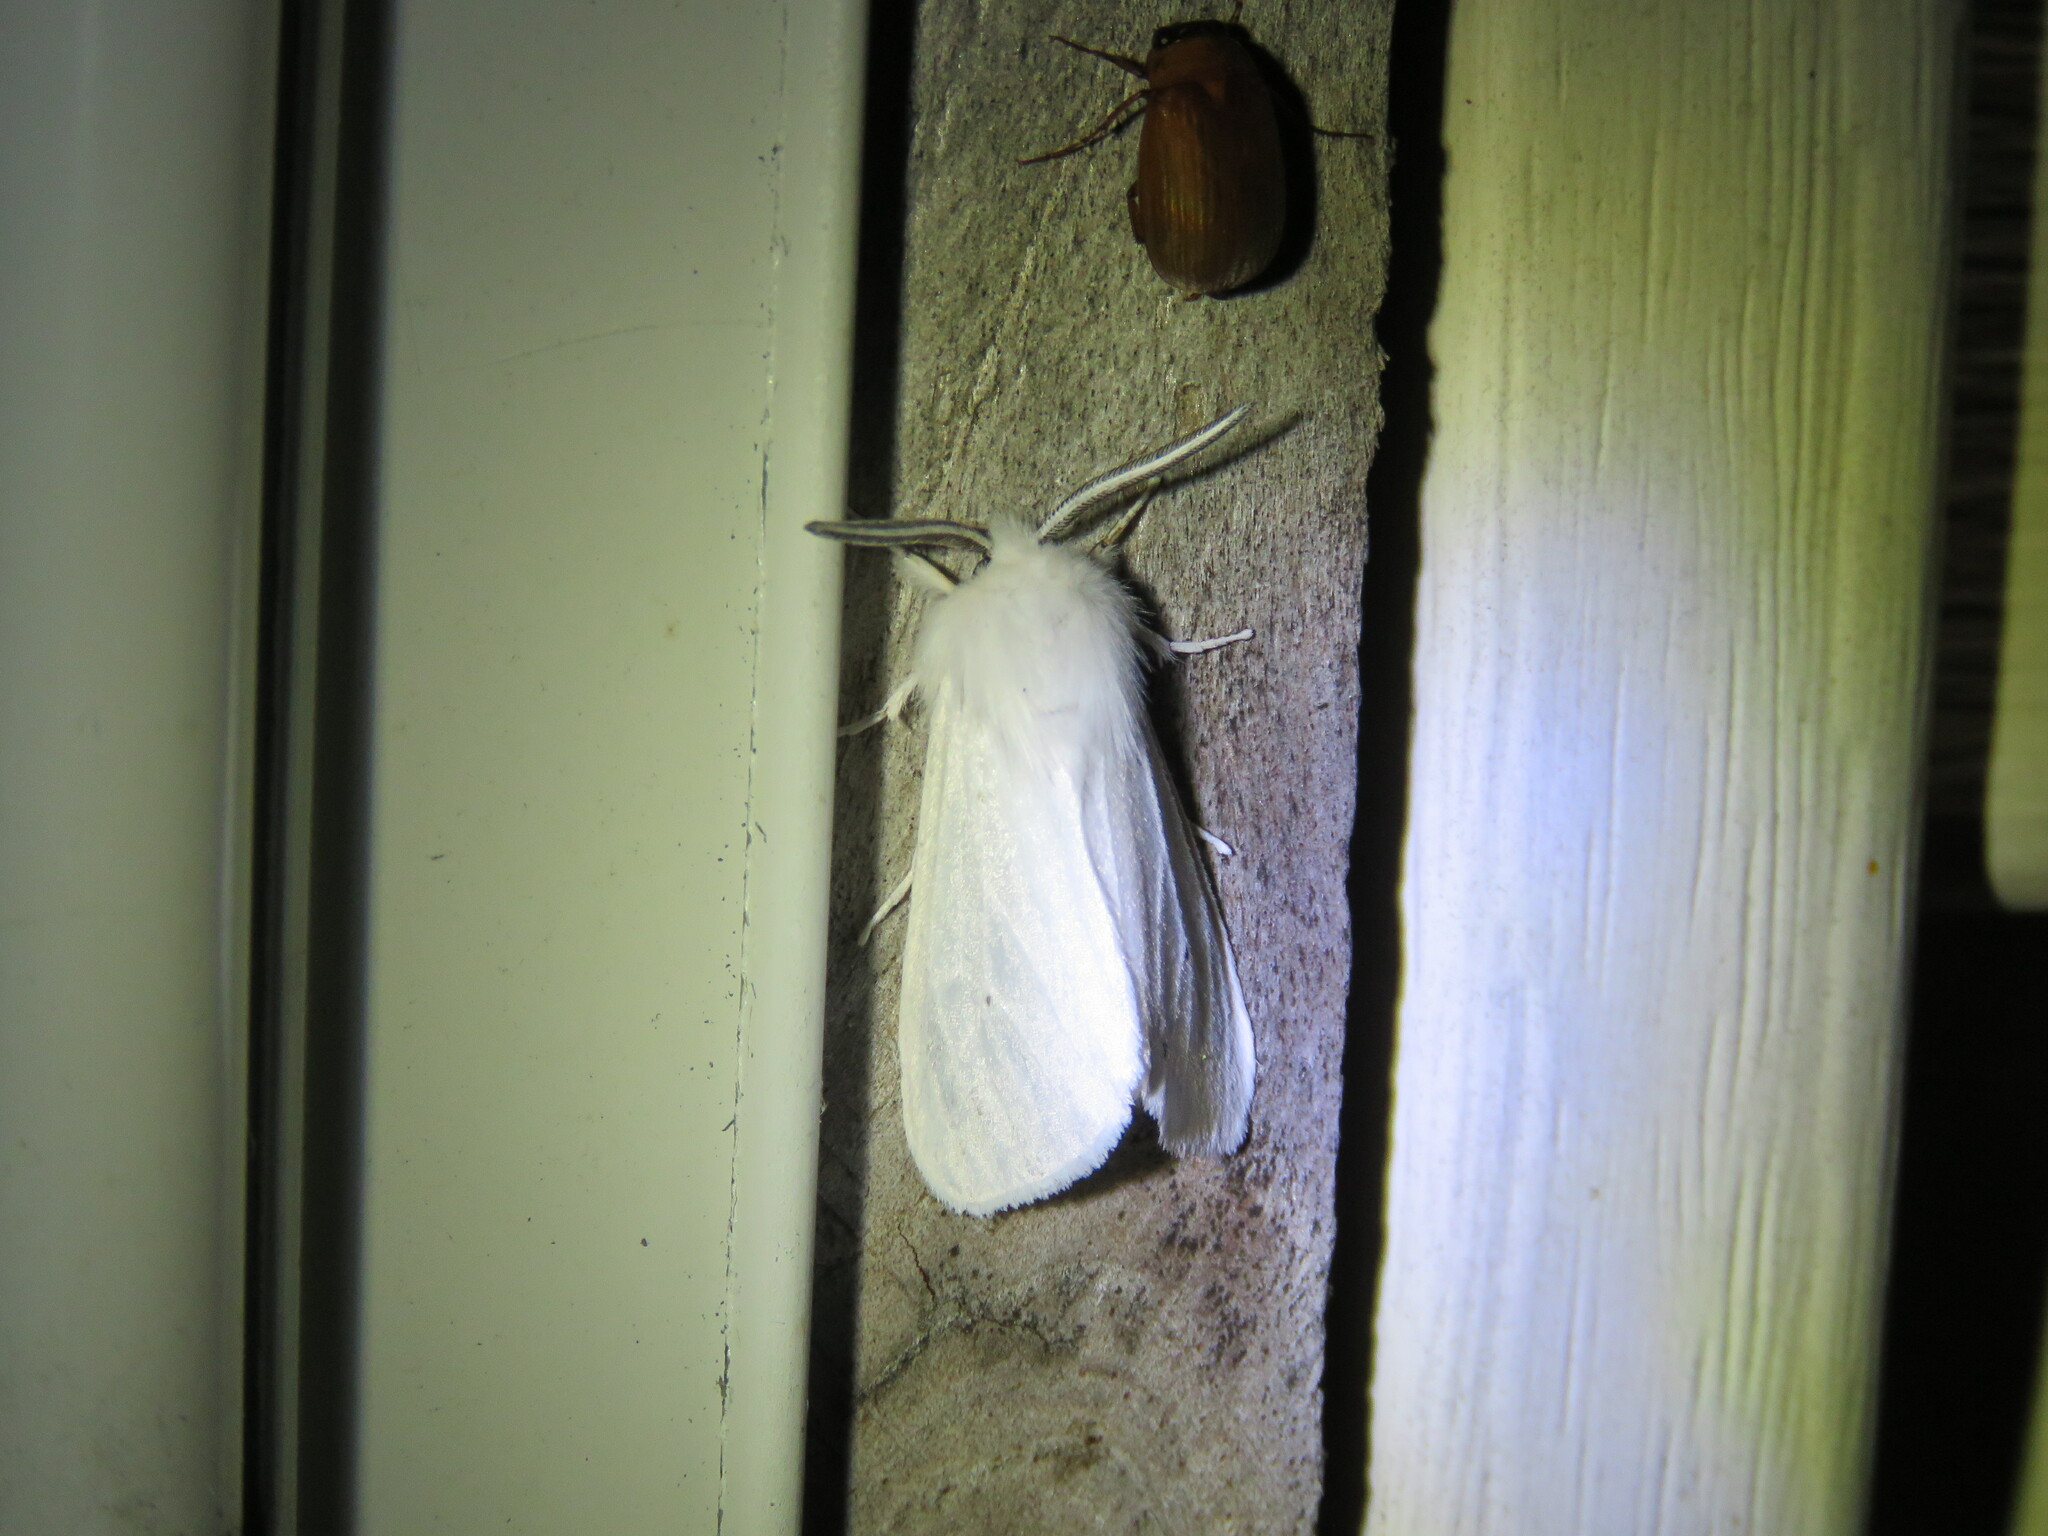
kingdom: Animalia
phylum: Arthropoda
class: Insecta
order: Lepidoptera
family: Erebidae
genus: Spilosoma
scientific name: Spilosoma congrua
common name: Agreeable tiger moth
